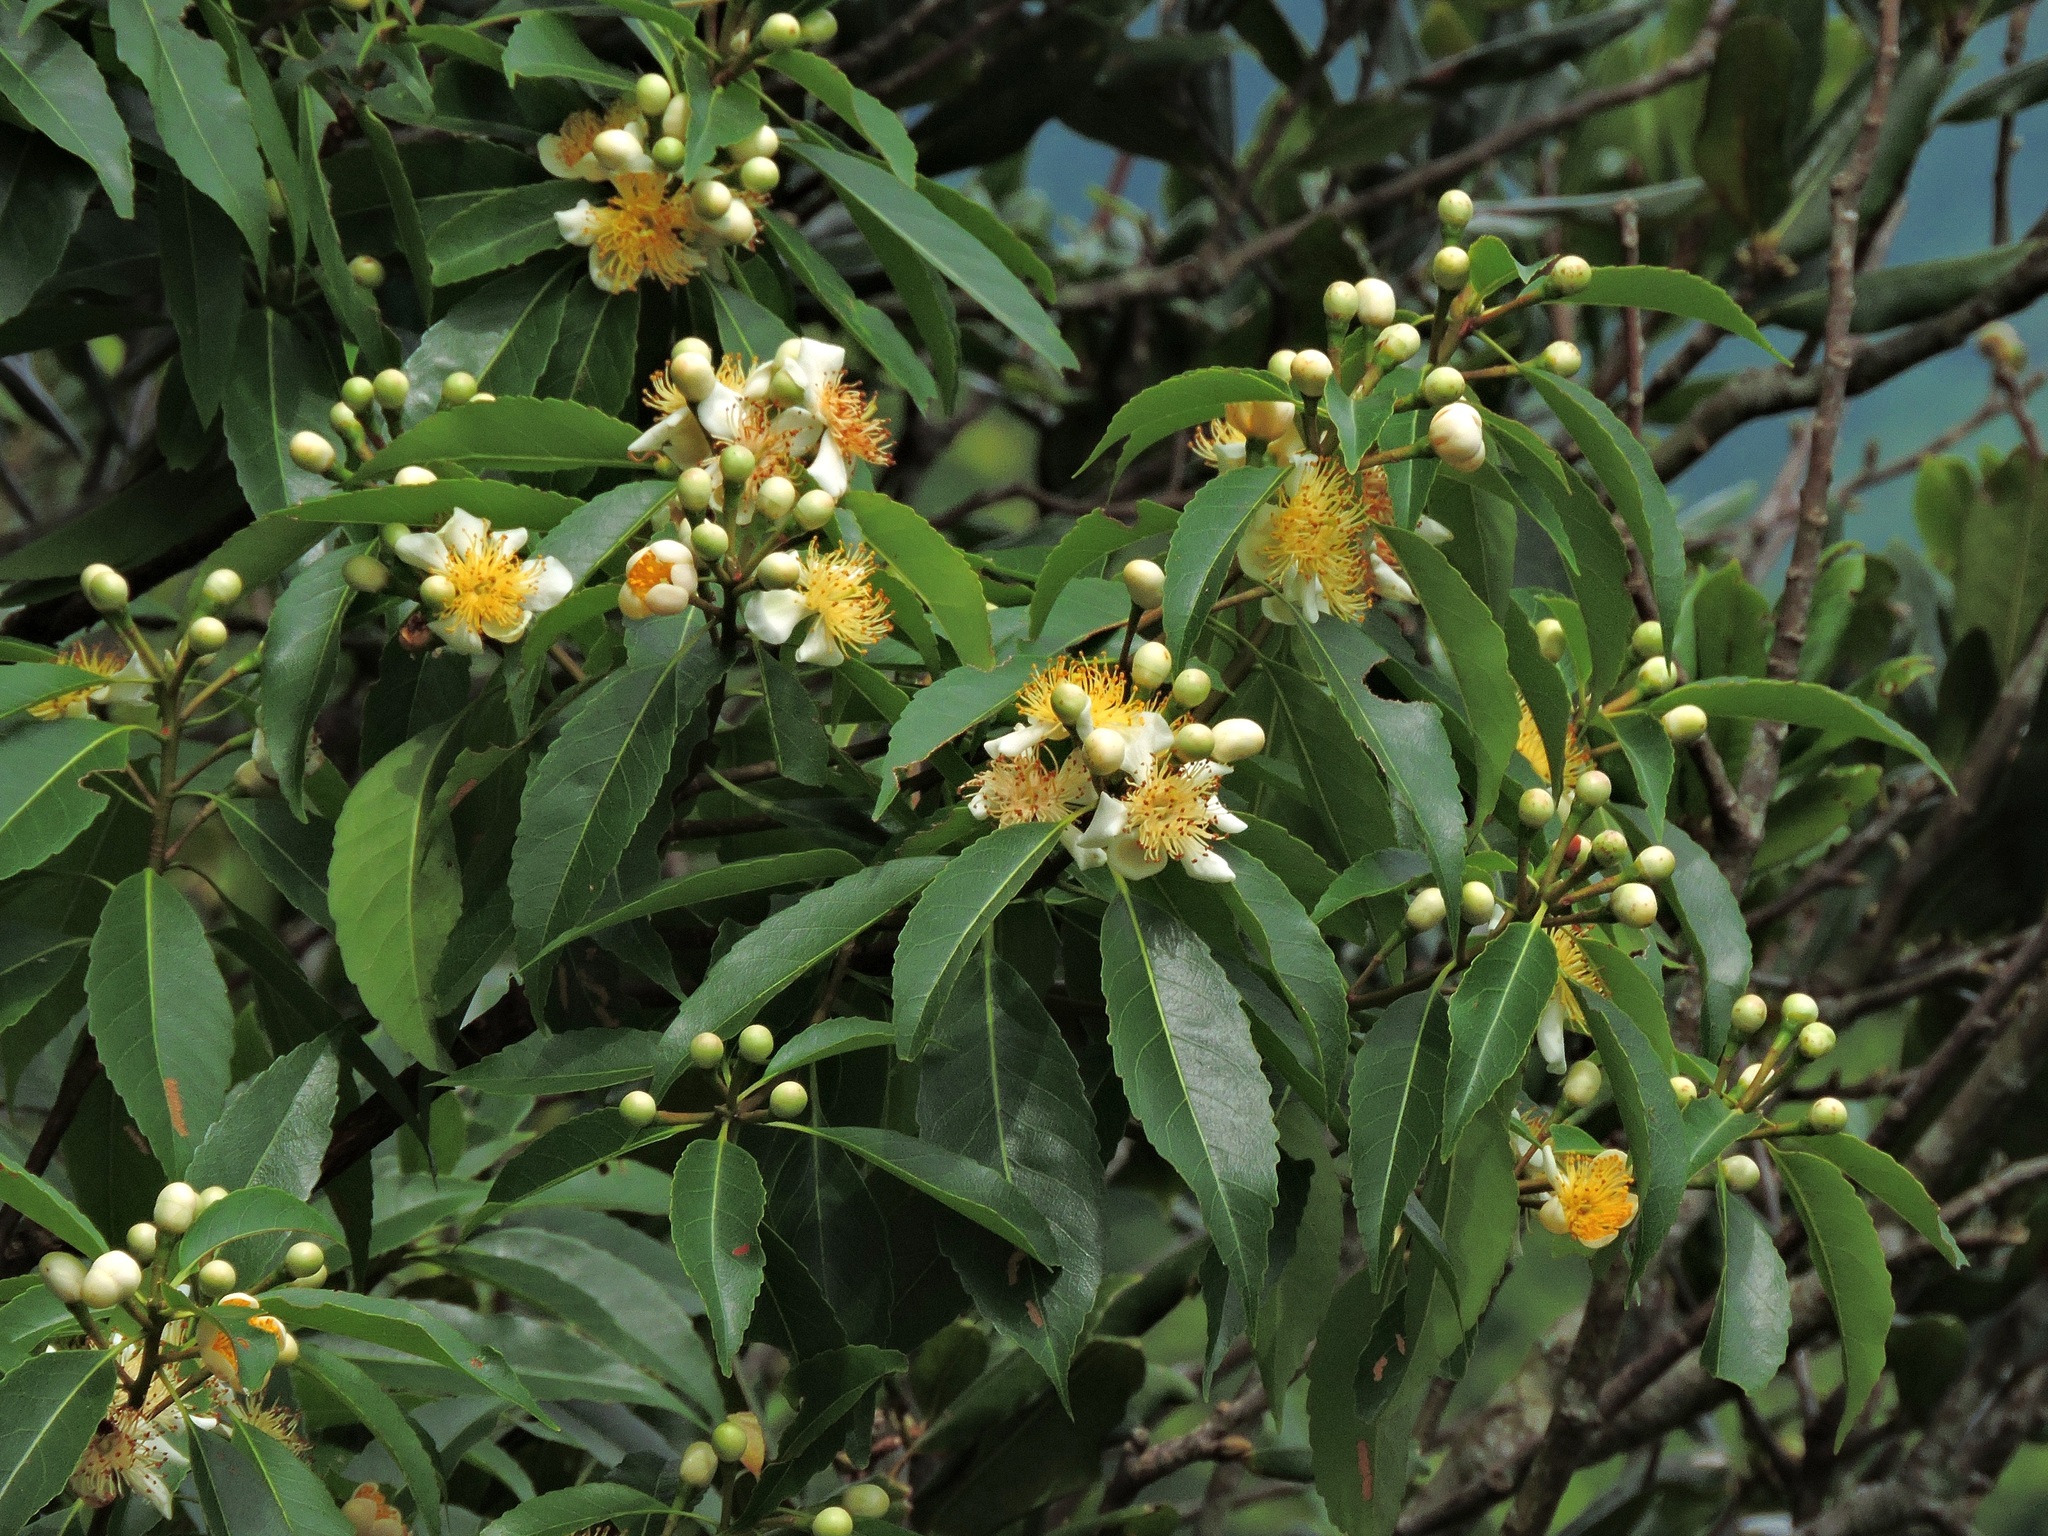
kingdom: Plantae
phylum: Tracheophyta
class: Magnoliopsida
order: Ericales
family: Theaceae
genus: Schima
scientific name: Schima superba
